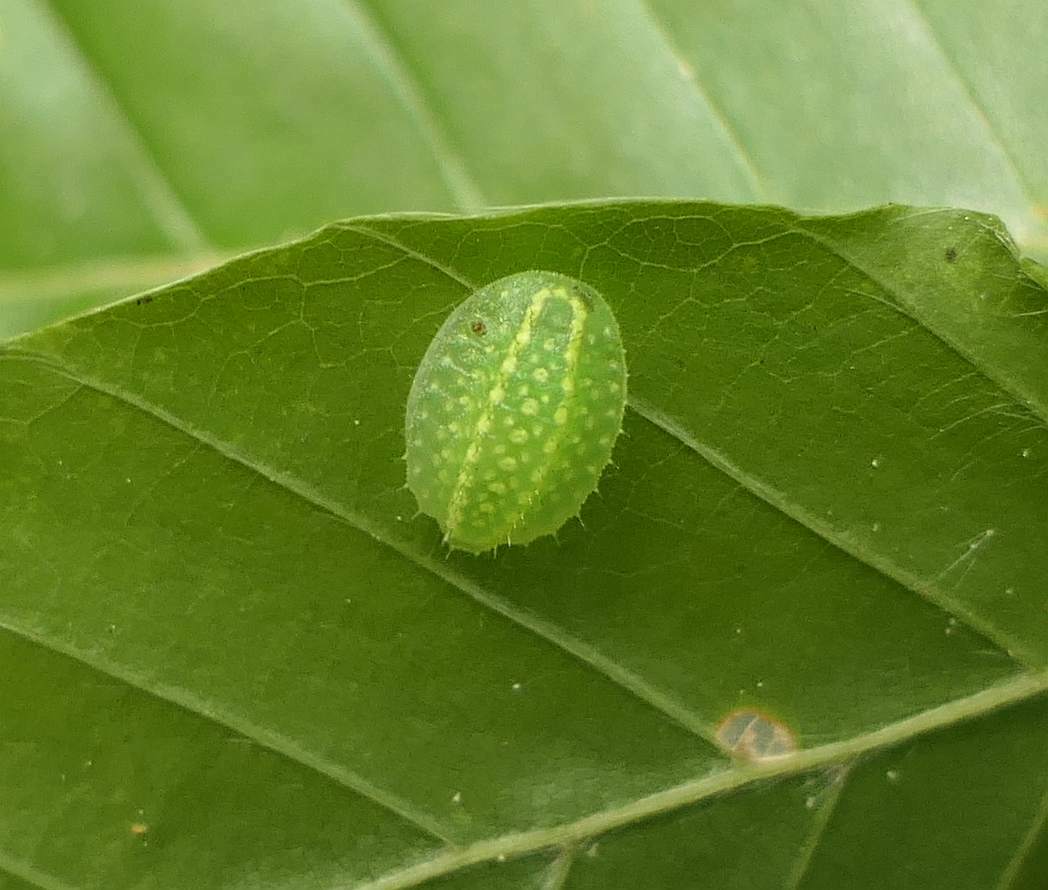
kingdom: Animalia
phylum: Arthropoda
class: Insecta
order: Lepidoptera
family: Limacodidae
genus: Lithacodes
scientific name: Lithacodes fasciola
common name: Yellow-shouldered slug moth
